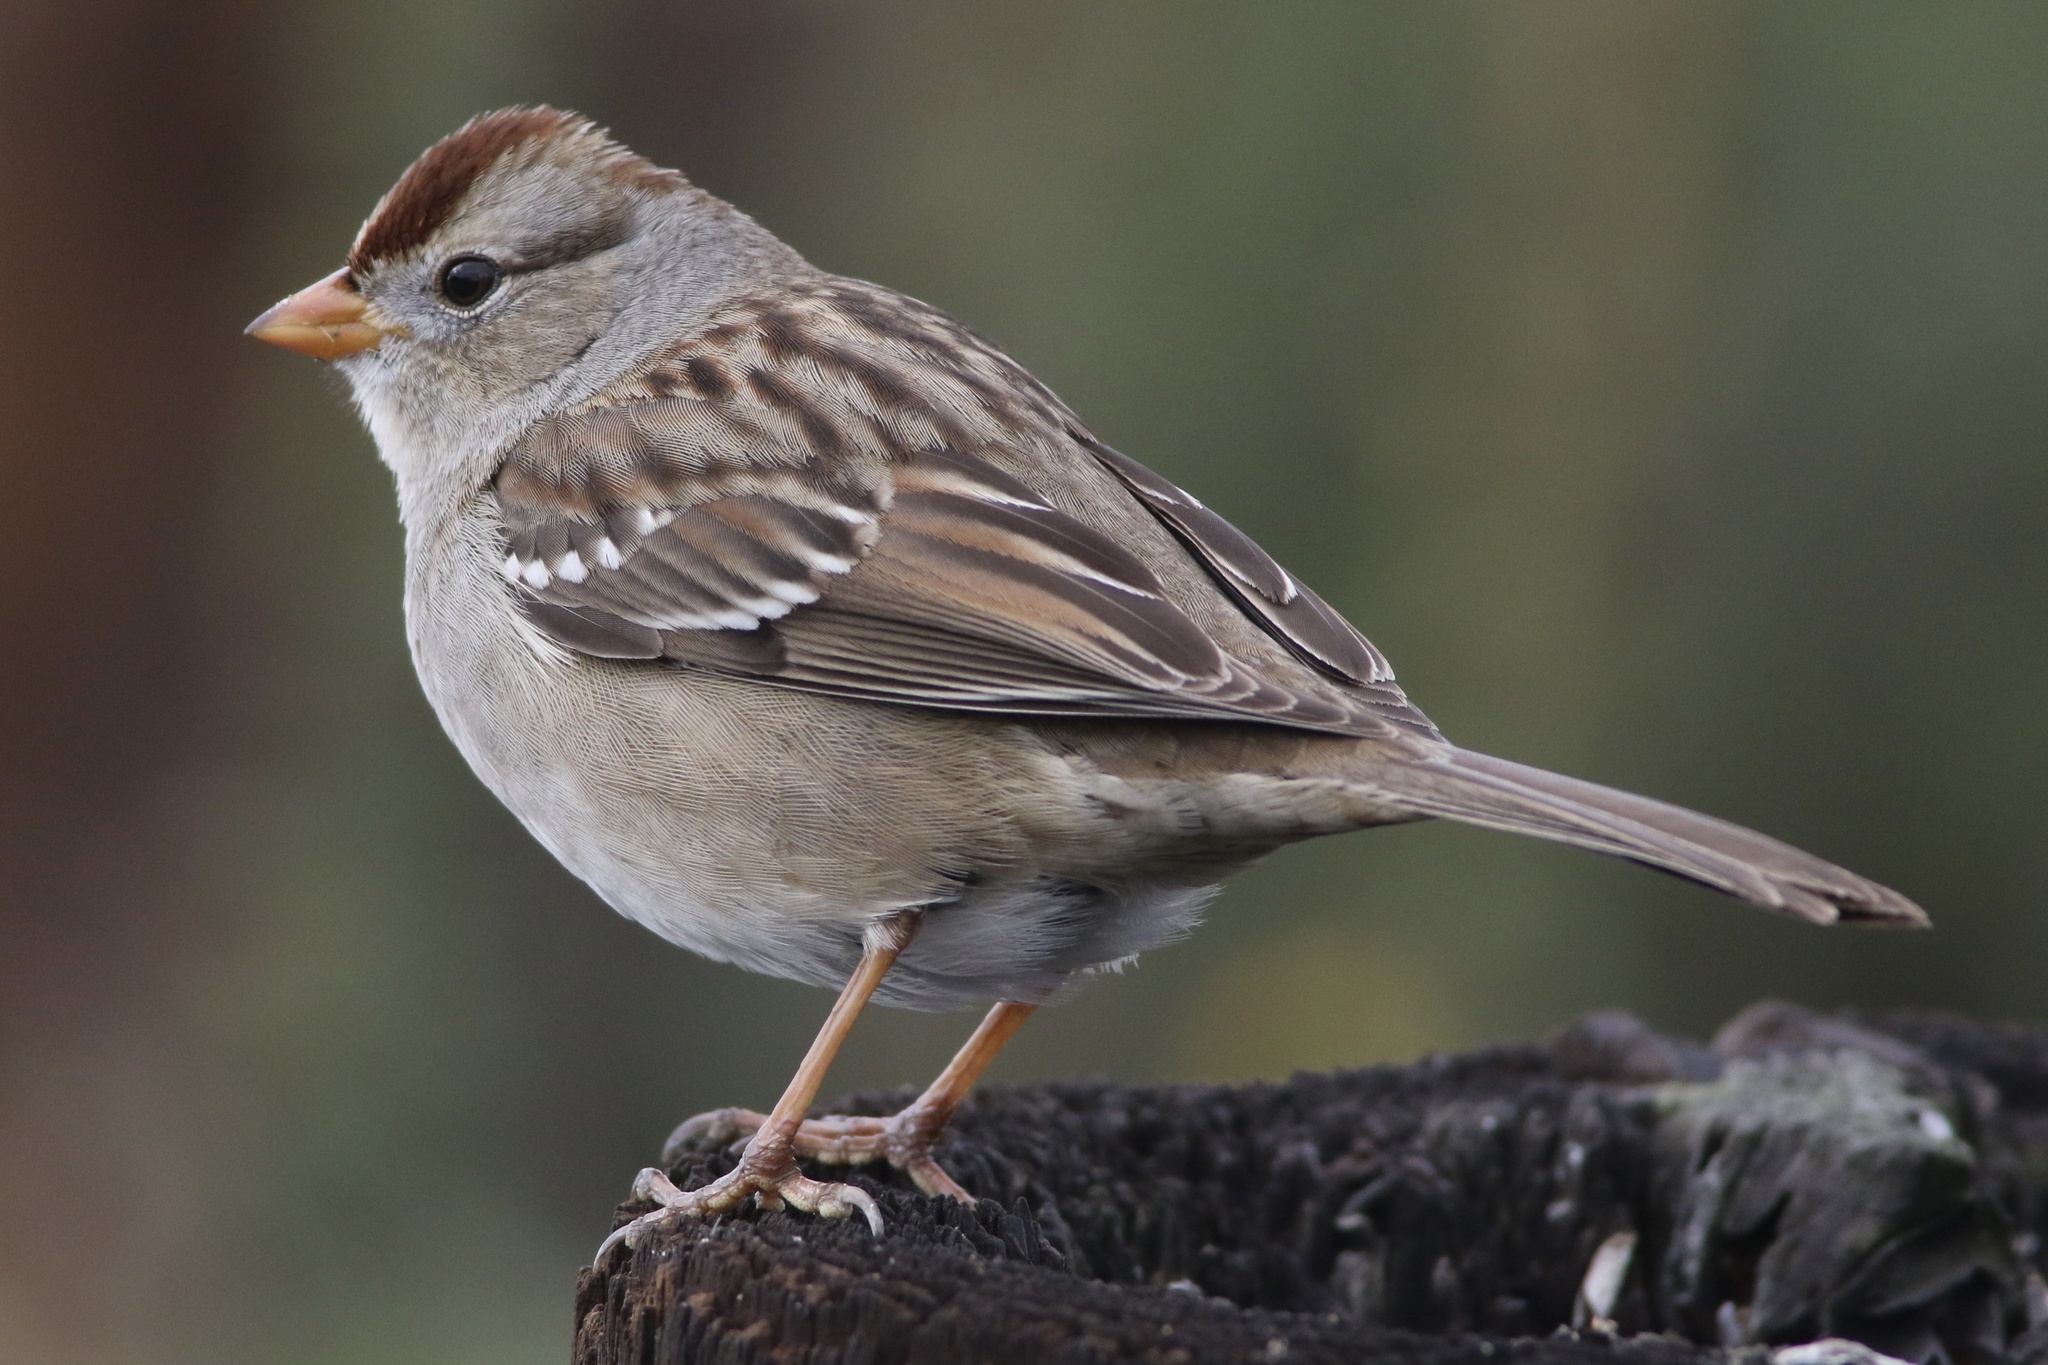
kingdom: Animalia
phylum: Chordata
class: Aves
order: Passeriformes
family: Passerellidae
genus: Zonotrichia
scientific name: Zonotrichia leucophrys
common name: White-crowned sparrow
